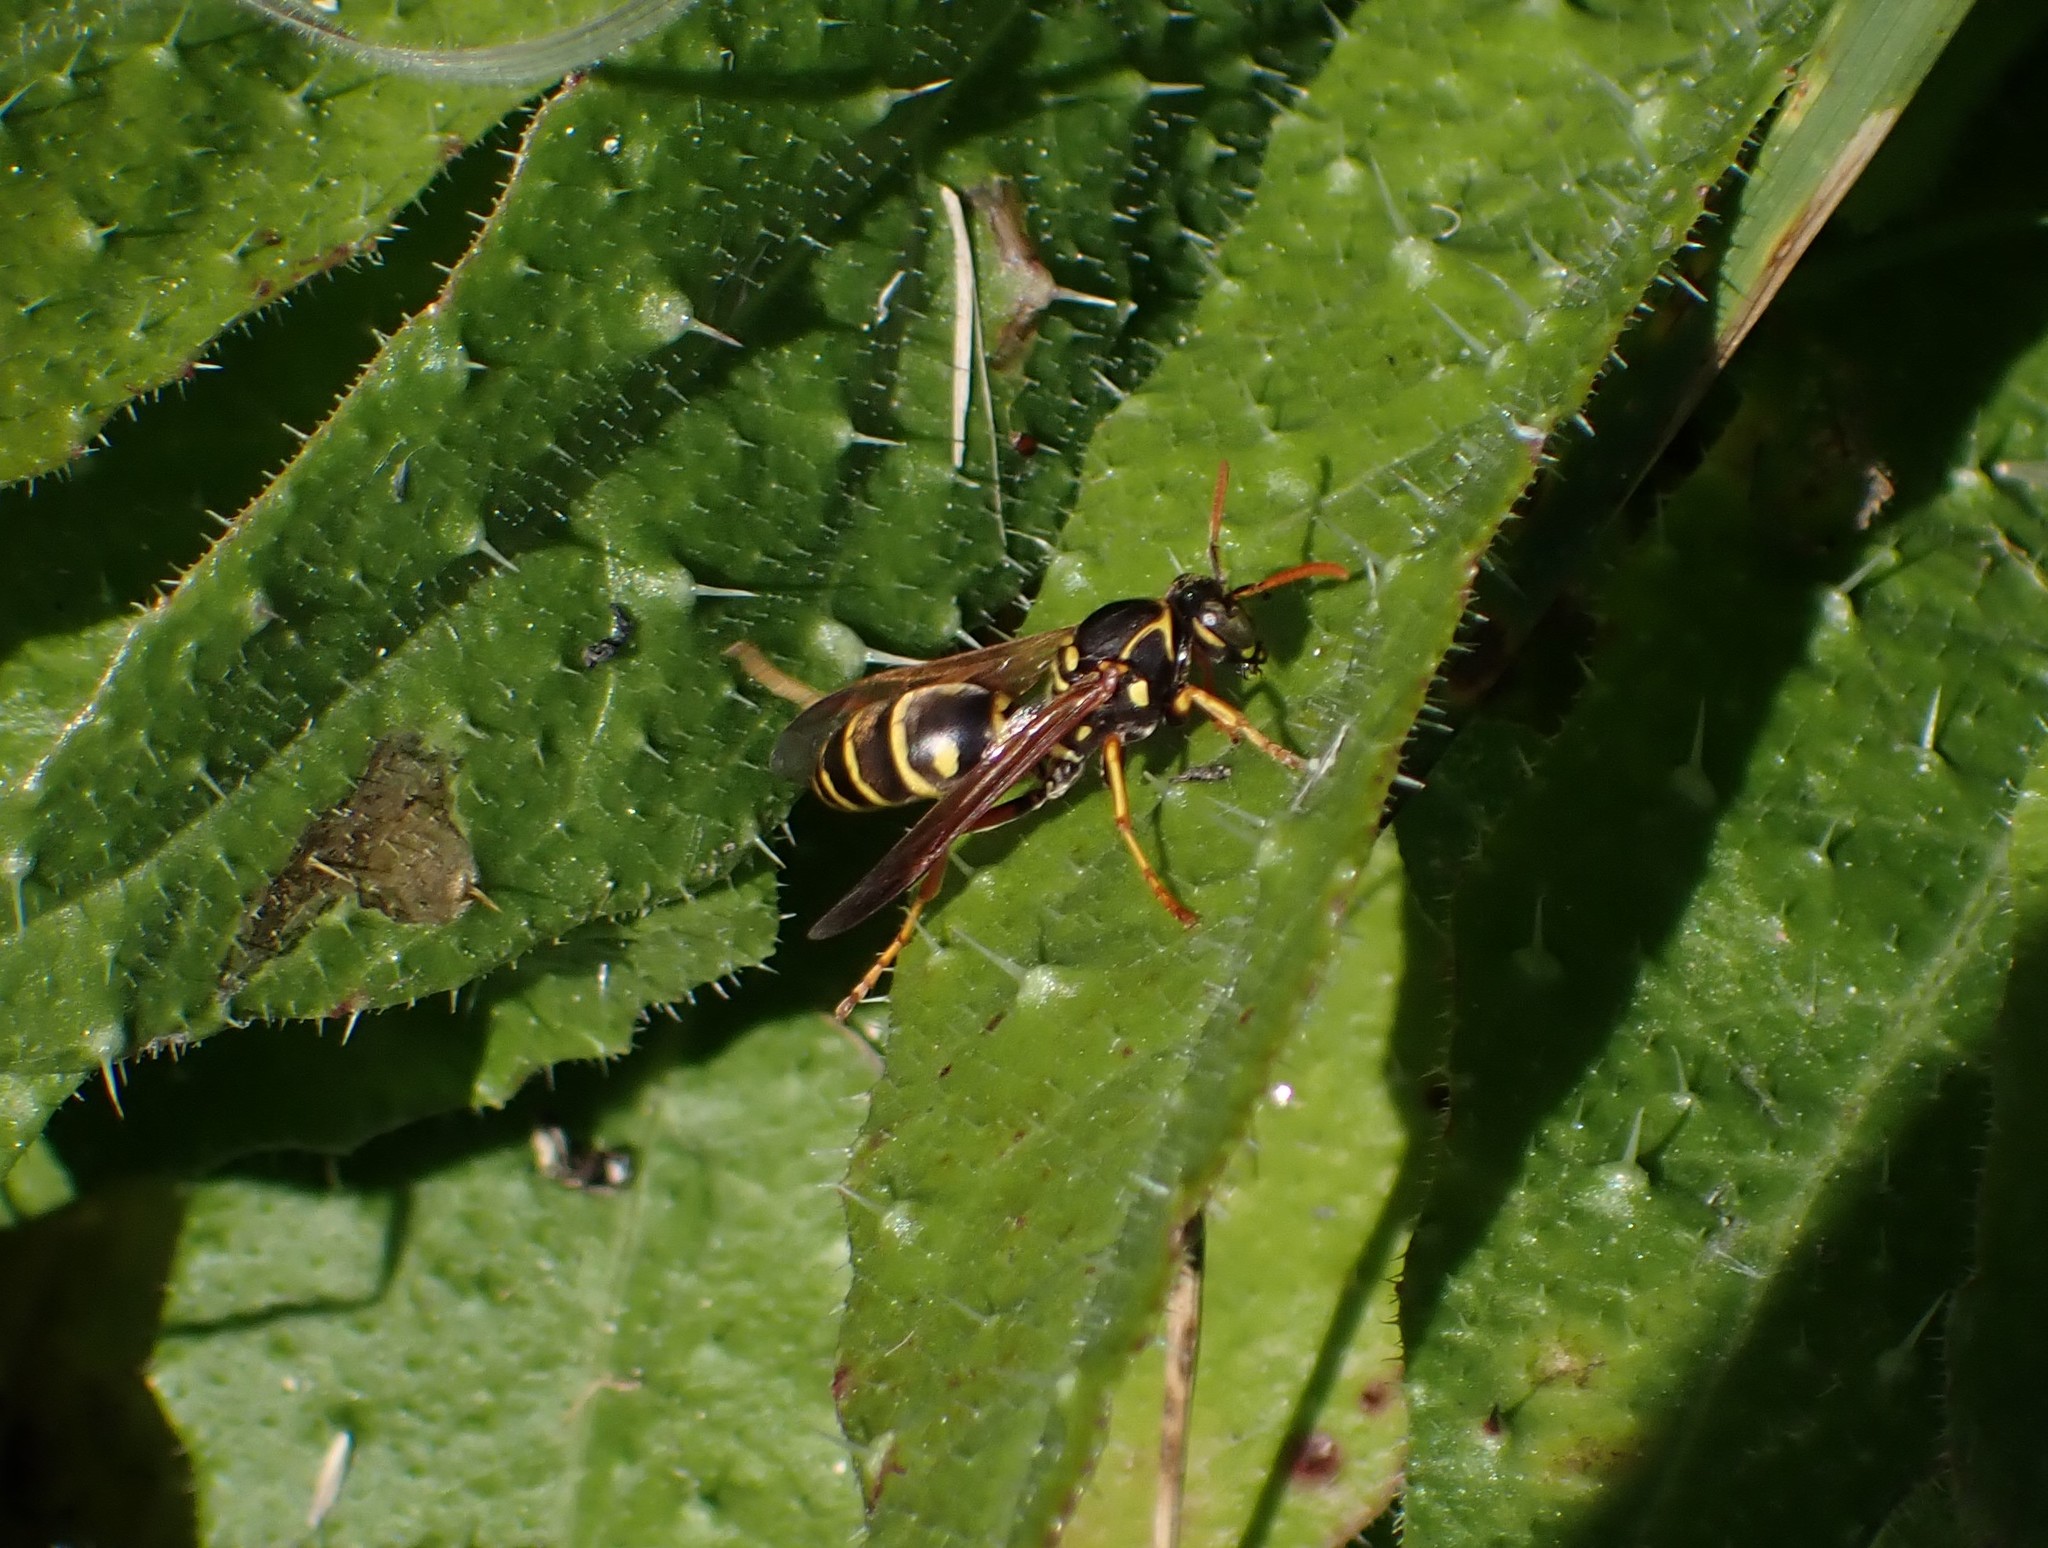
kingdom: Animalia
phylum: Arthropoda
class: Insecta
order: Hymenoptera
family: Eumenidae
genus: Polistes
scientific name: Polistes chinensis
